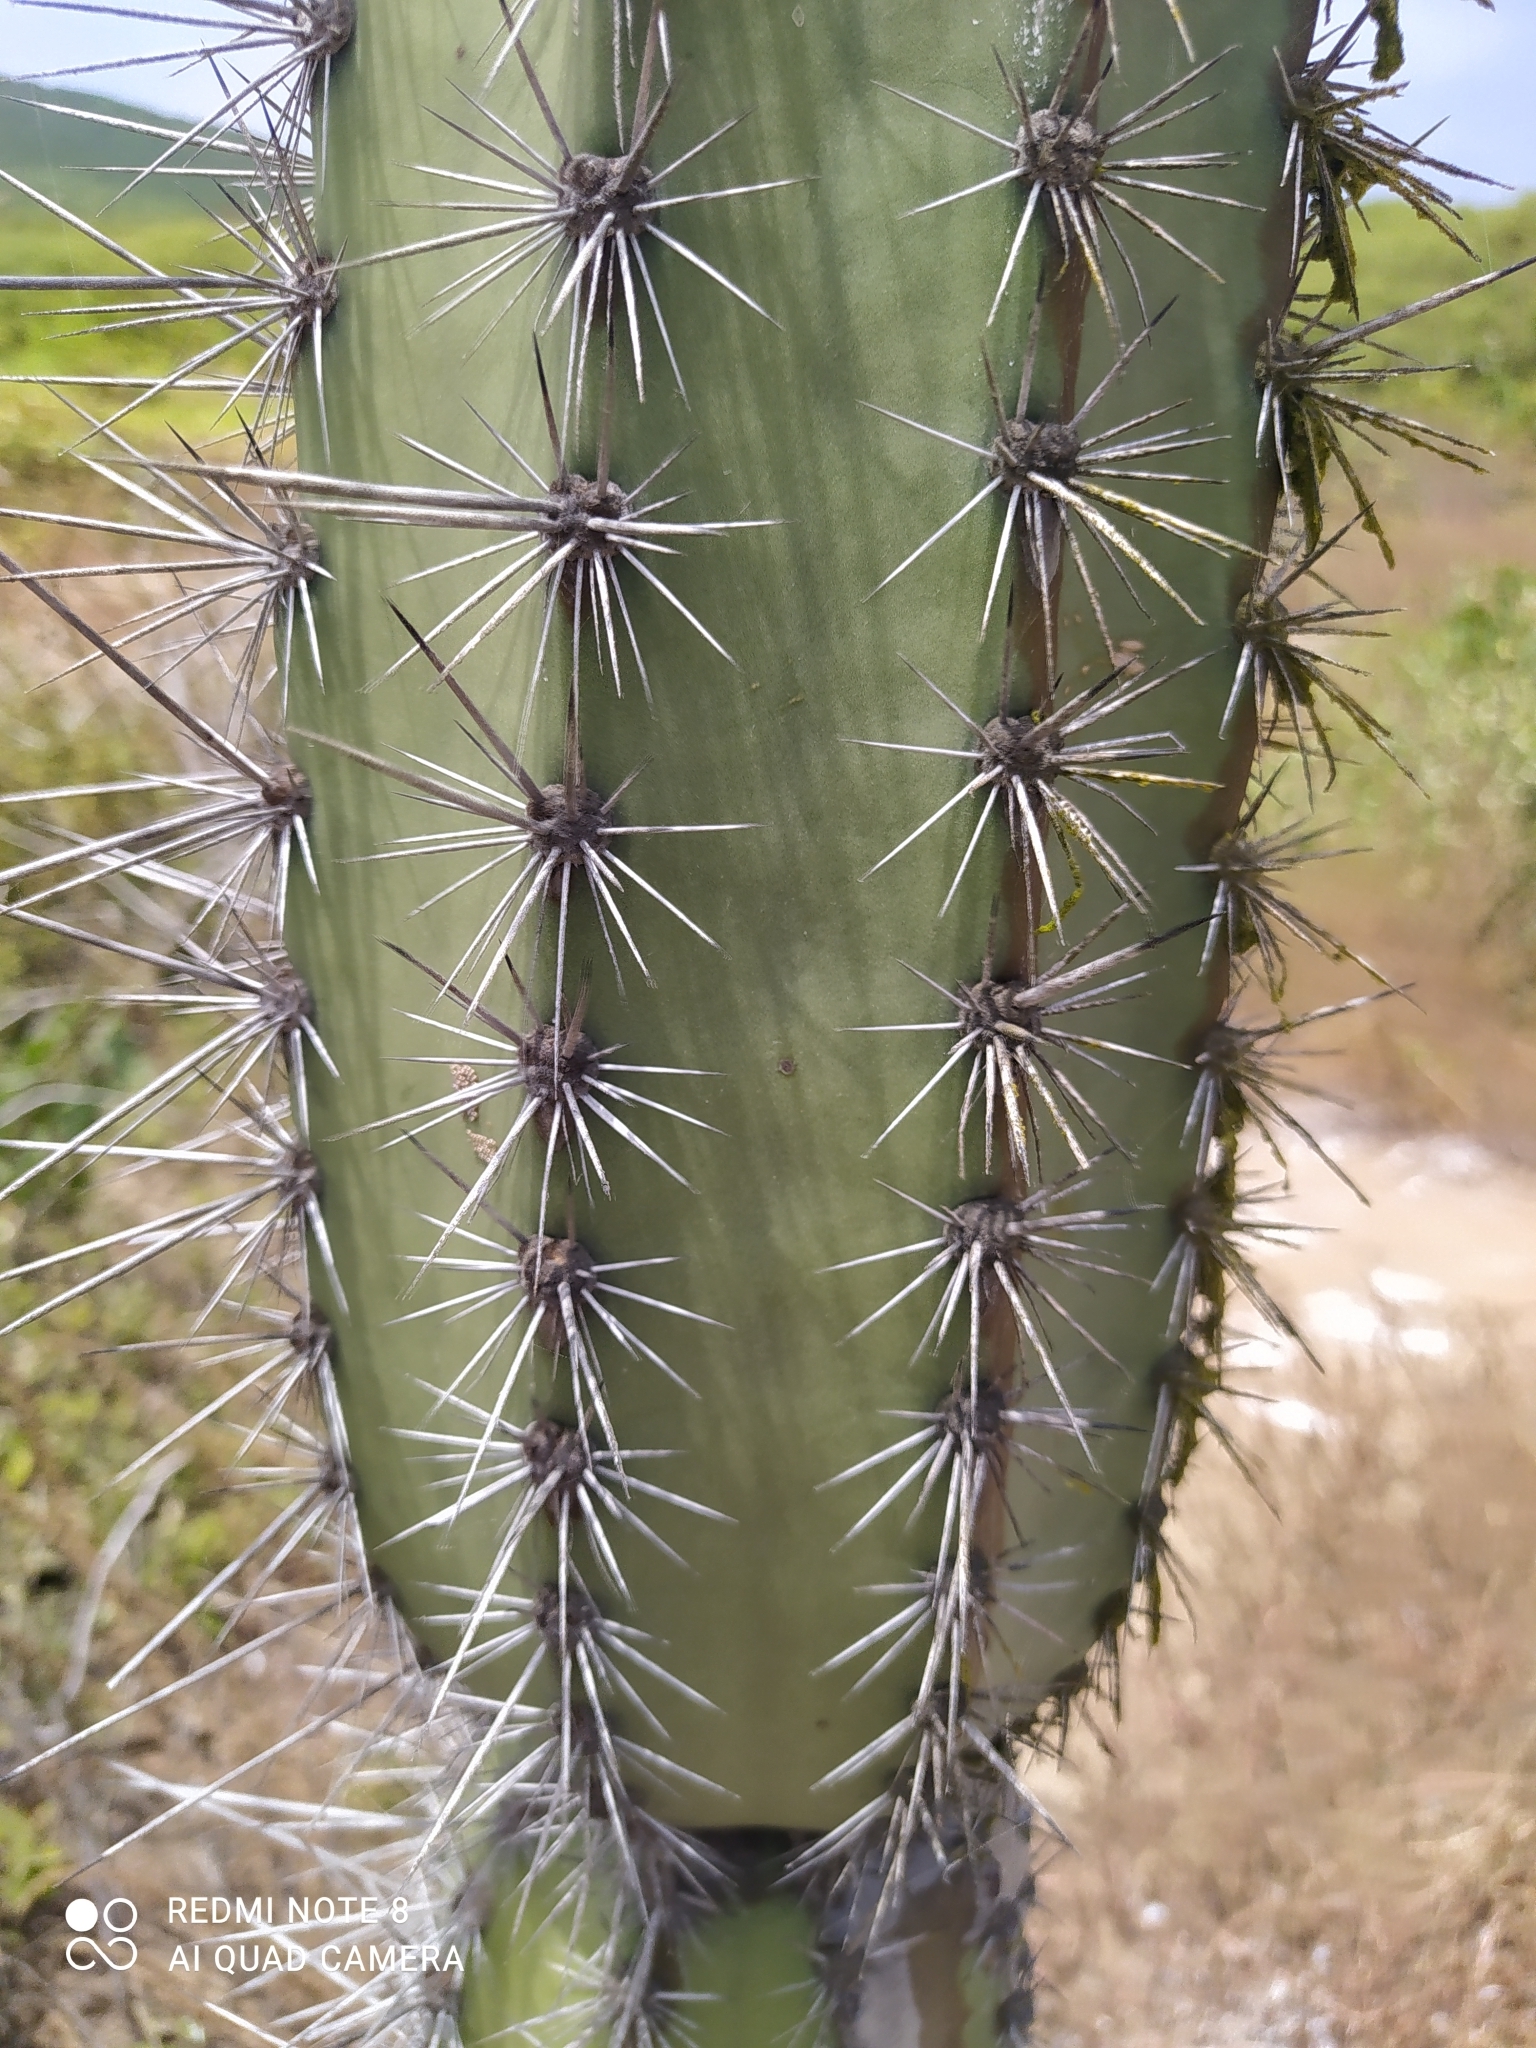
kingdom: Plantae
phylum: Tracheophyta
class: Magnoliopsida
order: Caryophyllales
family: Cactaceae
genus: Armatocereus
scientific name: Armatocereus cartwrightianus
